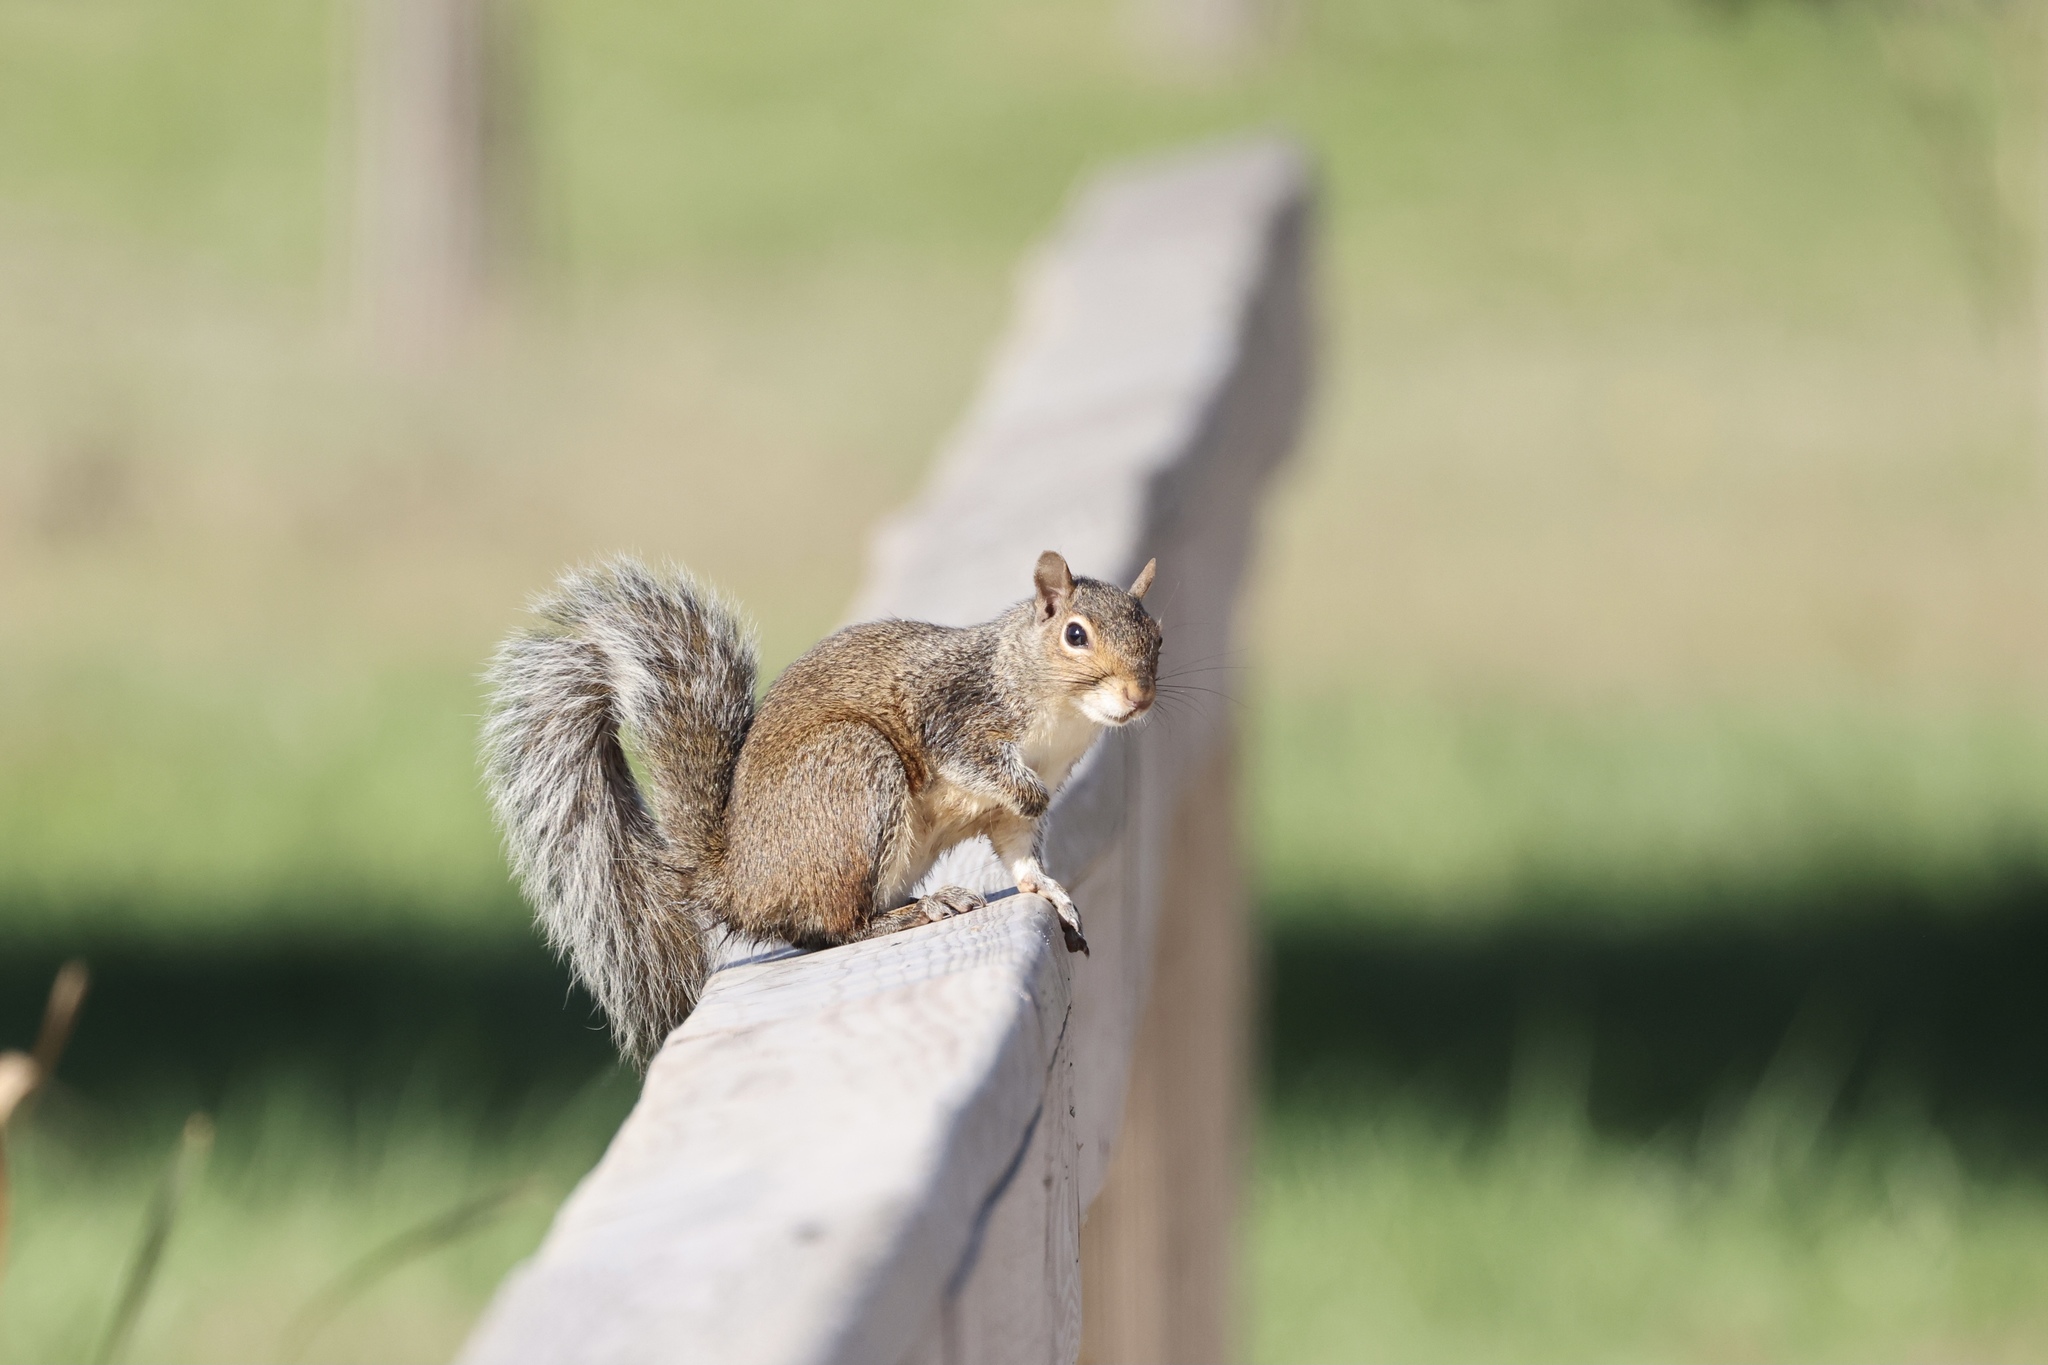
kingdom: Animalia
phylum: Chordata
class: Mammalia
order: Rodentia
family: Sciuridae
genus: Sciurus
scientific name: Sciurus carolinensis
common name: Eastern gray squirrel
